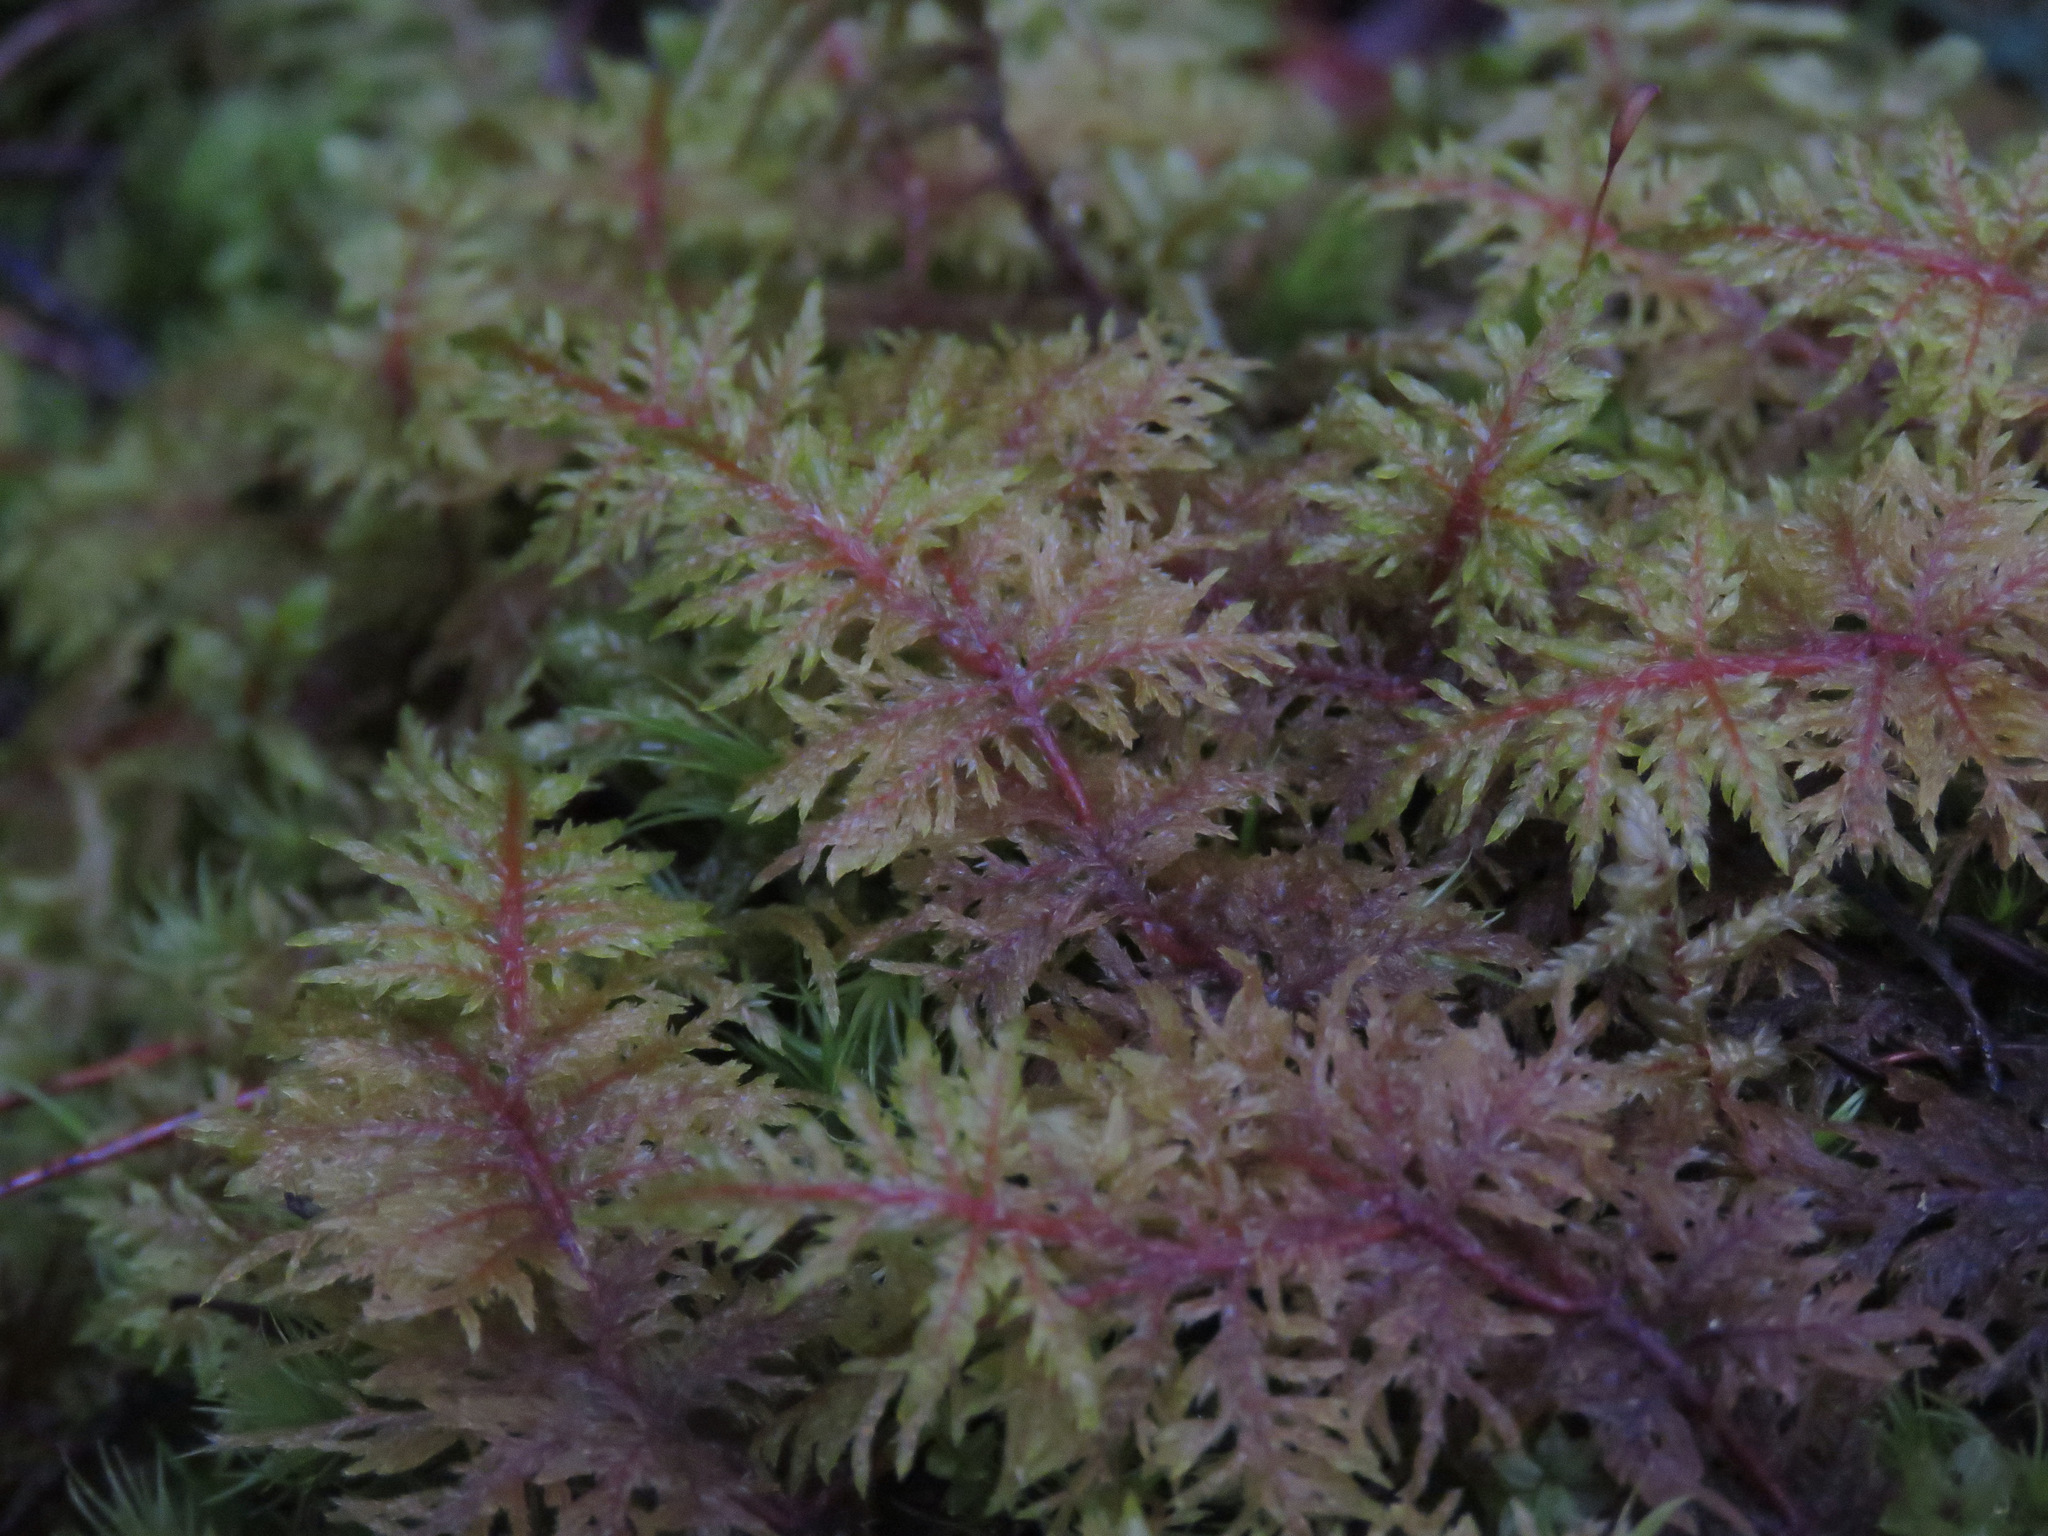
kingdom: Plantae
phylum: Bryophyta
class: Bryopsida
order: Hypnales
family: Hylocomiaceae
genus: Hylocomium
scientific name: Hylocomium splendens
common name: Stairstep moss
